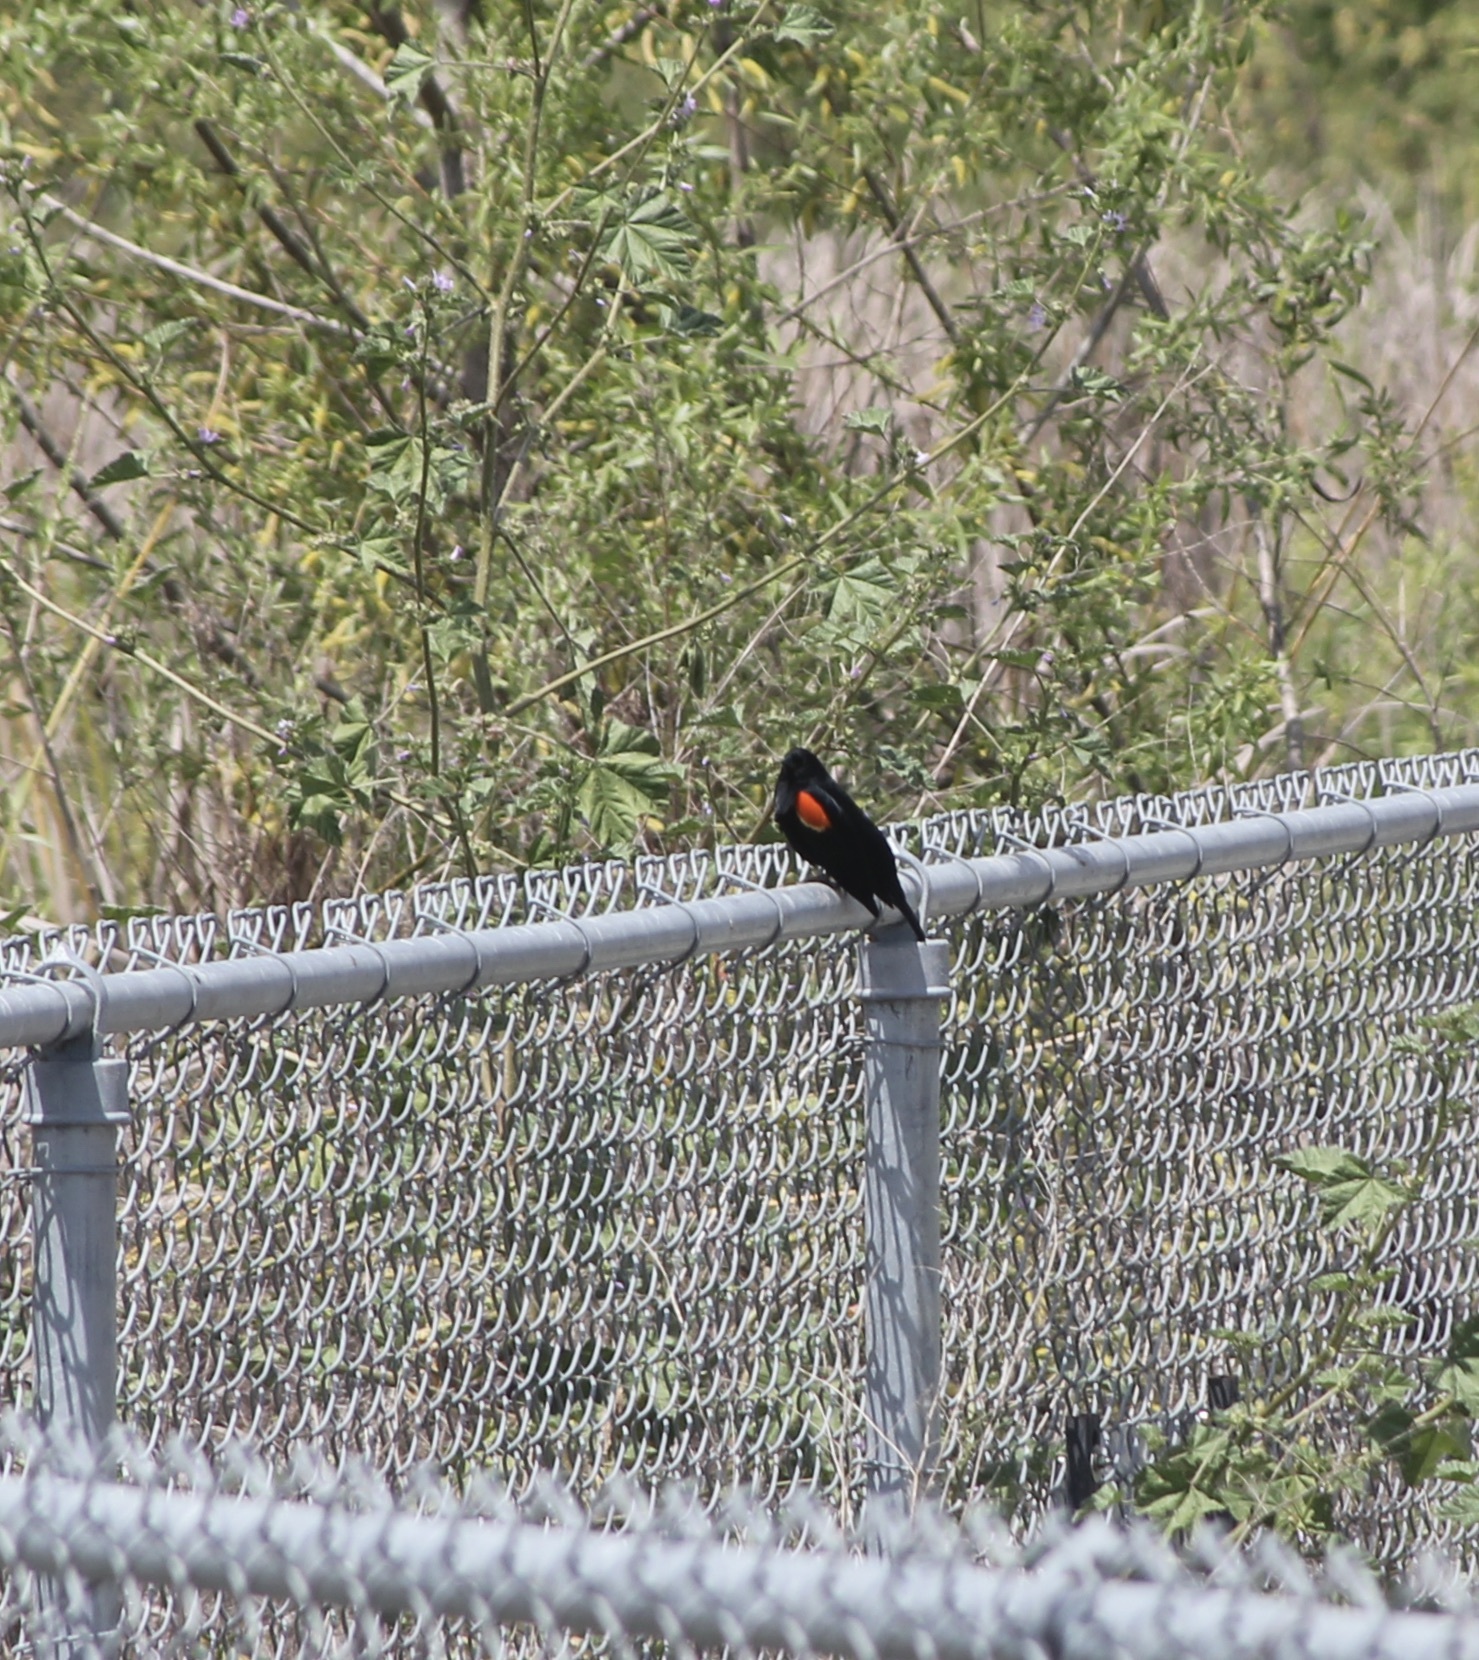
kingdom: Animalia
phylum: Chordata
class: Aves
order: Passeriformes
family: Icteridae
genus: Agelaius
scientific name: Agelaius phoeniceus
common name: Red-winged blackbird
